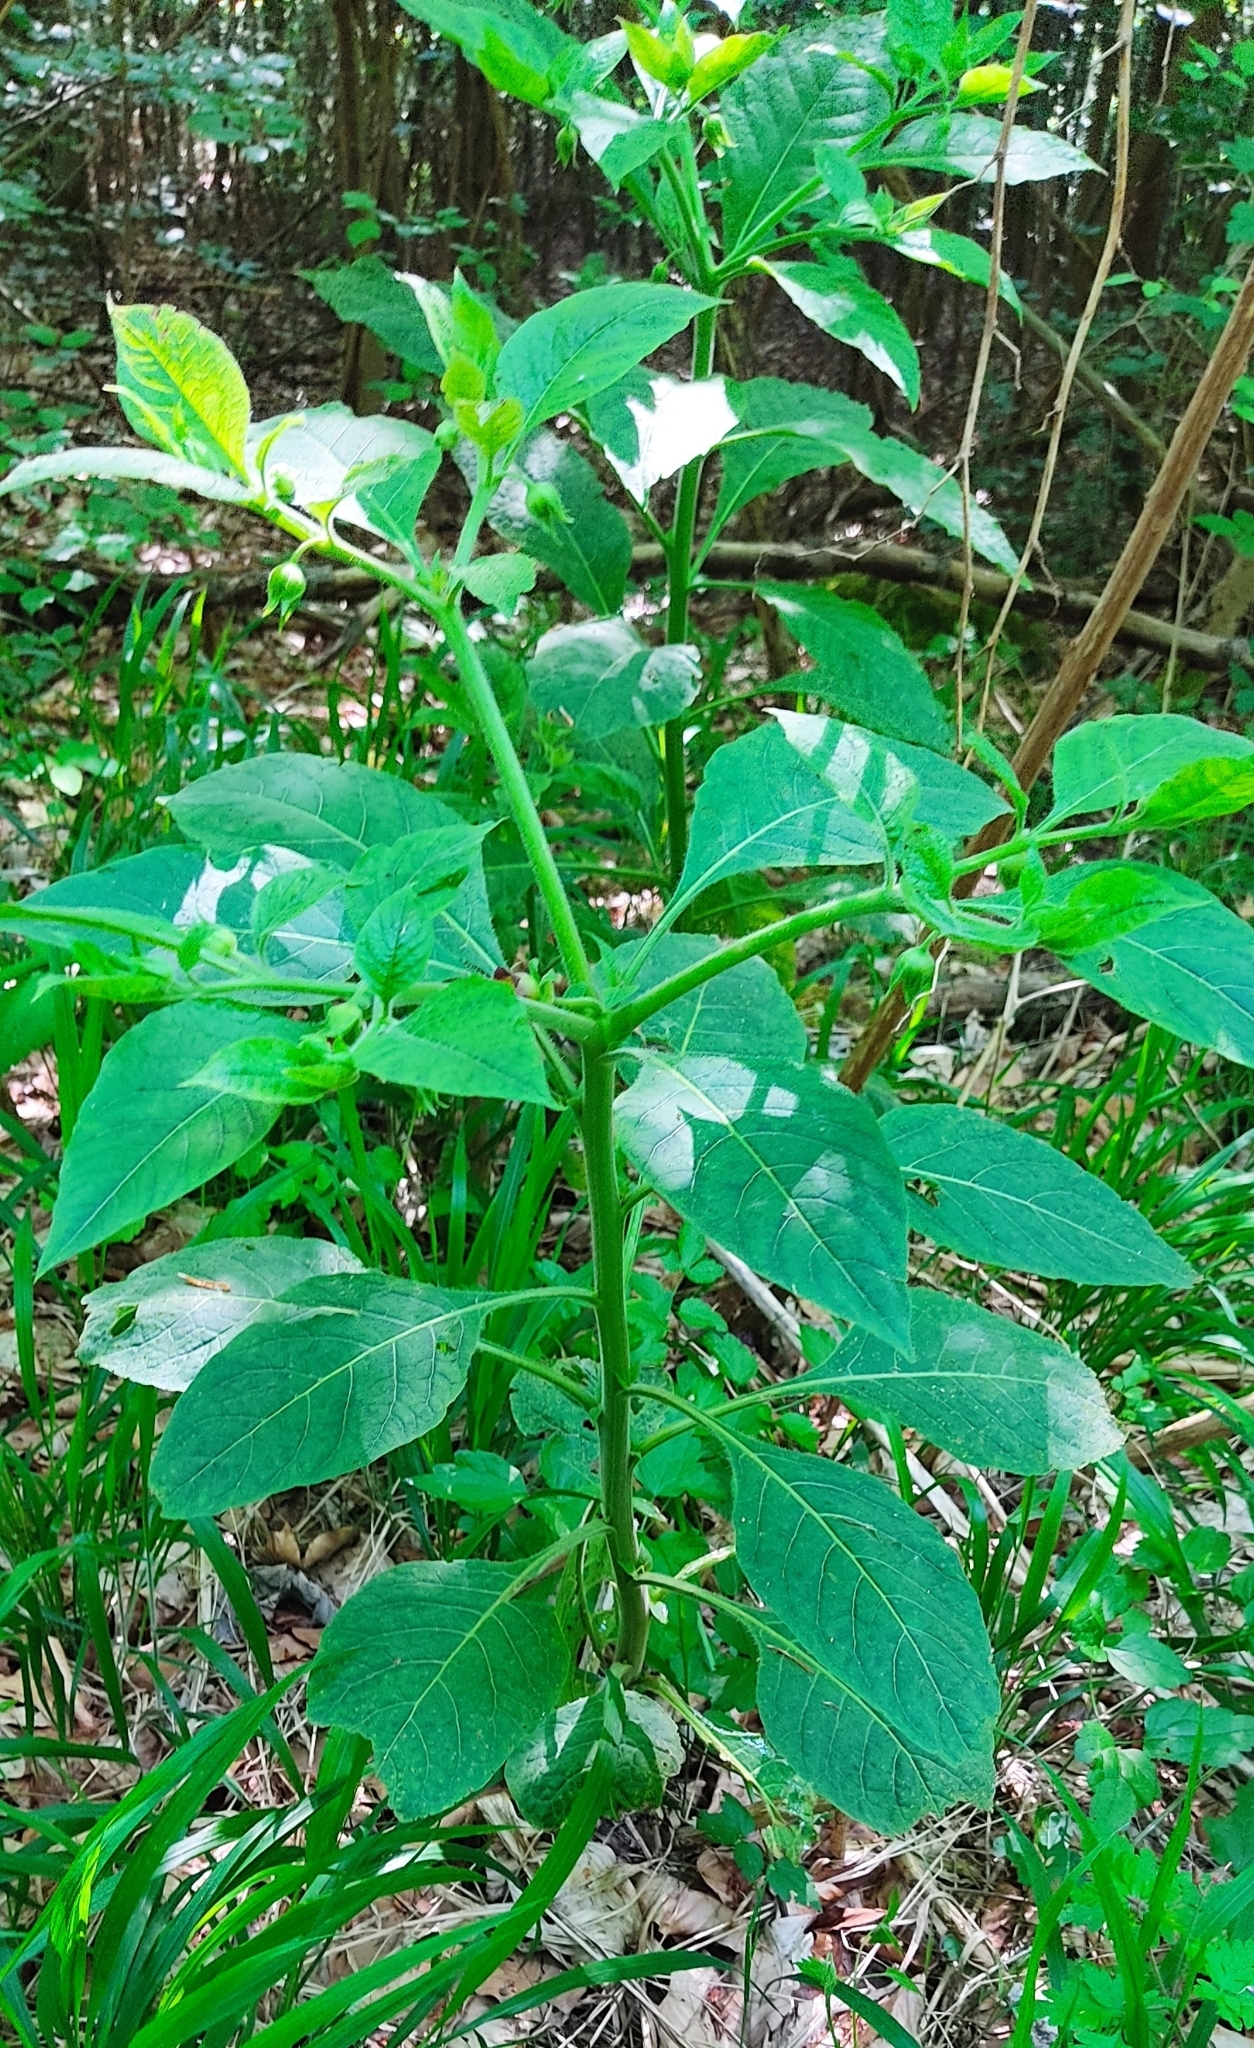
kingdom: Plantae
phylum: Tracheophyta
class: Magnoliopsida
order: Solanales
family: Solanaceae
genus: Atropa
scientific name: Atropa belladonna
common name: Deadly nightshade
